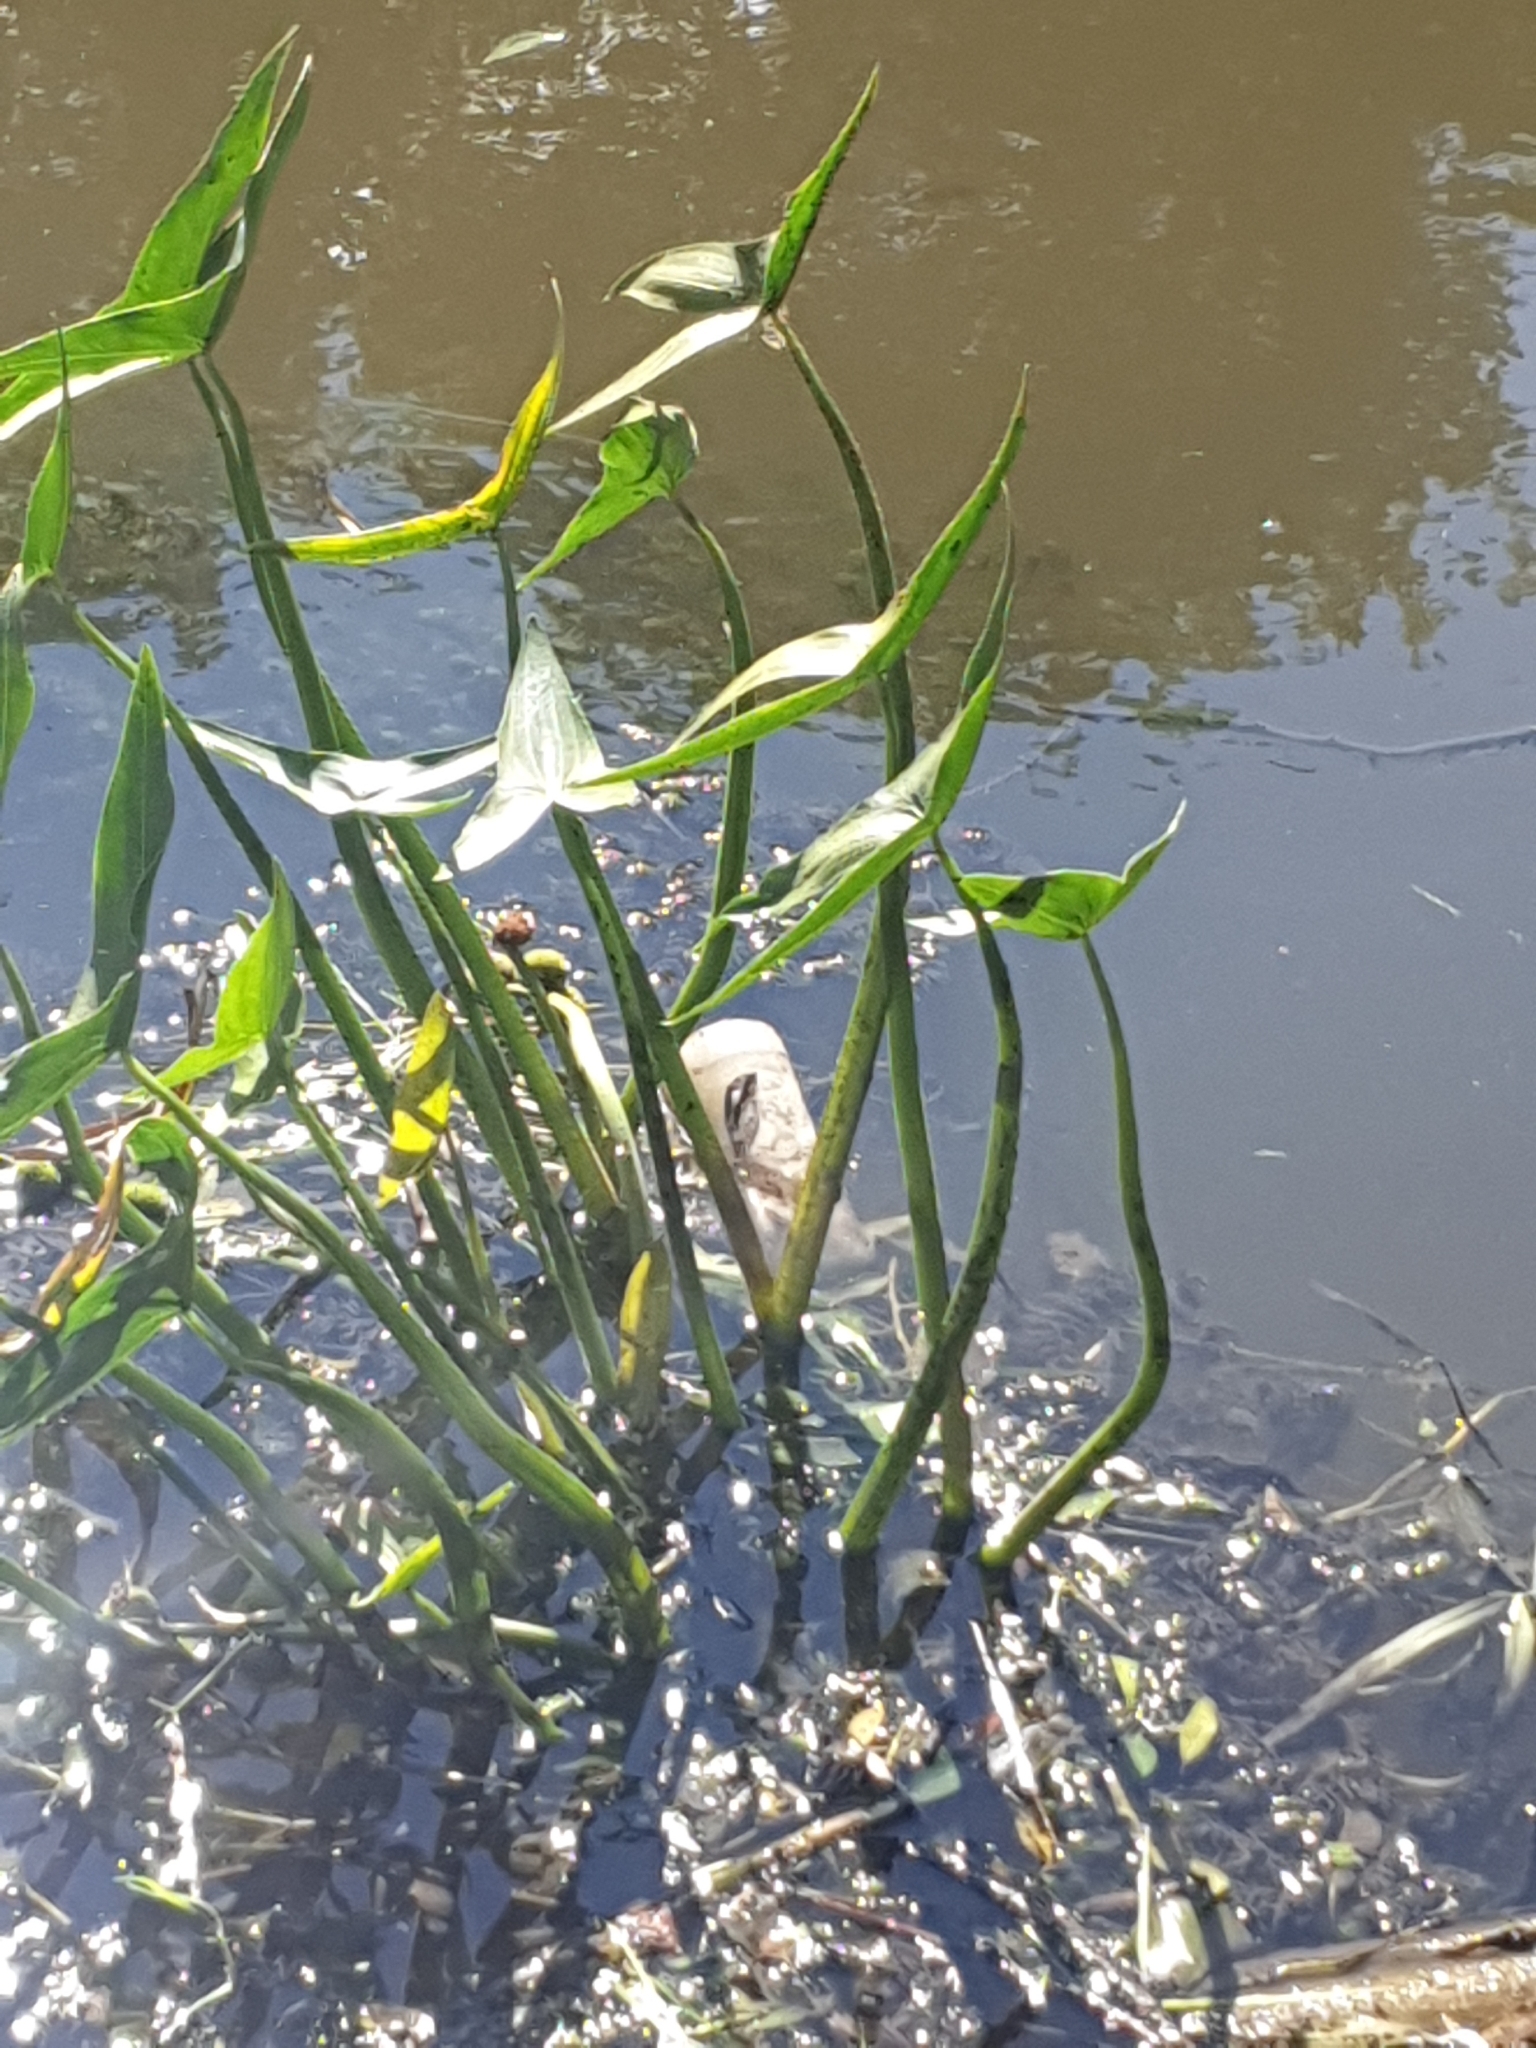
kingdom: Plantae
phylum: Tracheophyta
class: Liliopsida
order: Alismatales
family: Alismataceae
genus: Sagittaria
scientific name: Sagittaria sagittifolia
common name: Arrowhead
